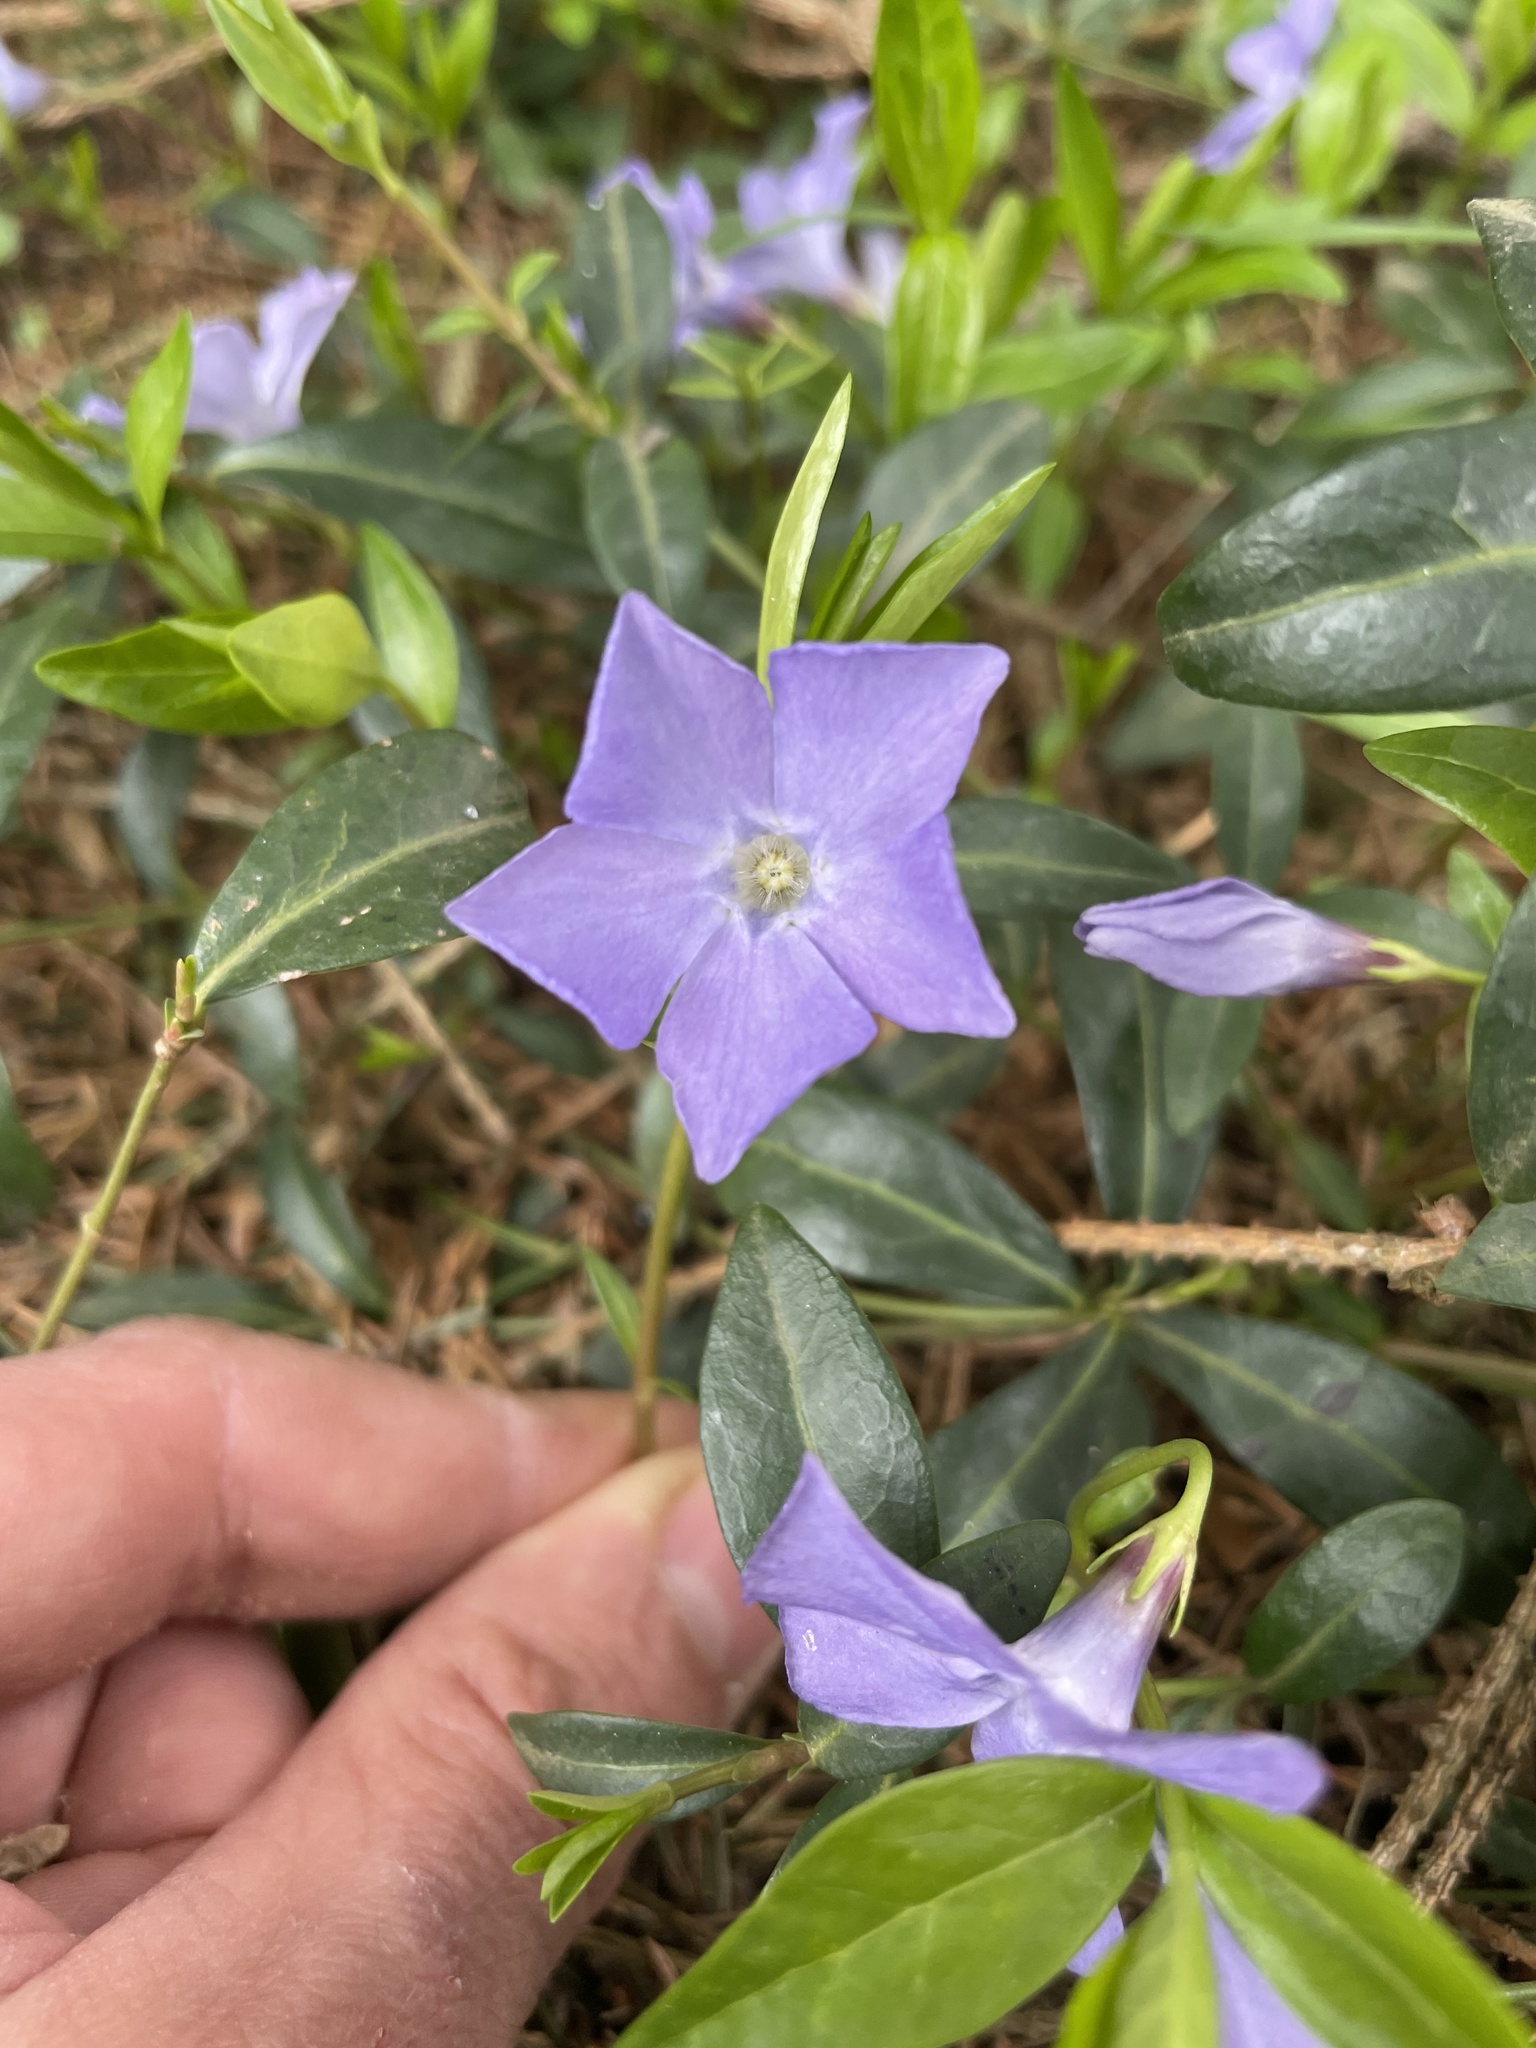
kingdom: Plantae
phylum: Tracheophyta
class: Magnoliopsida
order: Gentianales
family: Apocynaceae
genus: Vinca
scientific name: Vinca minor
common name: Lesser periwinkle
